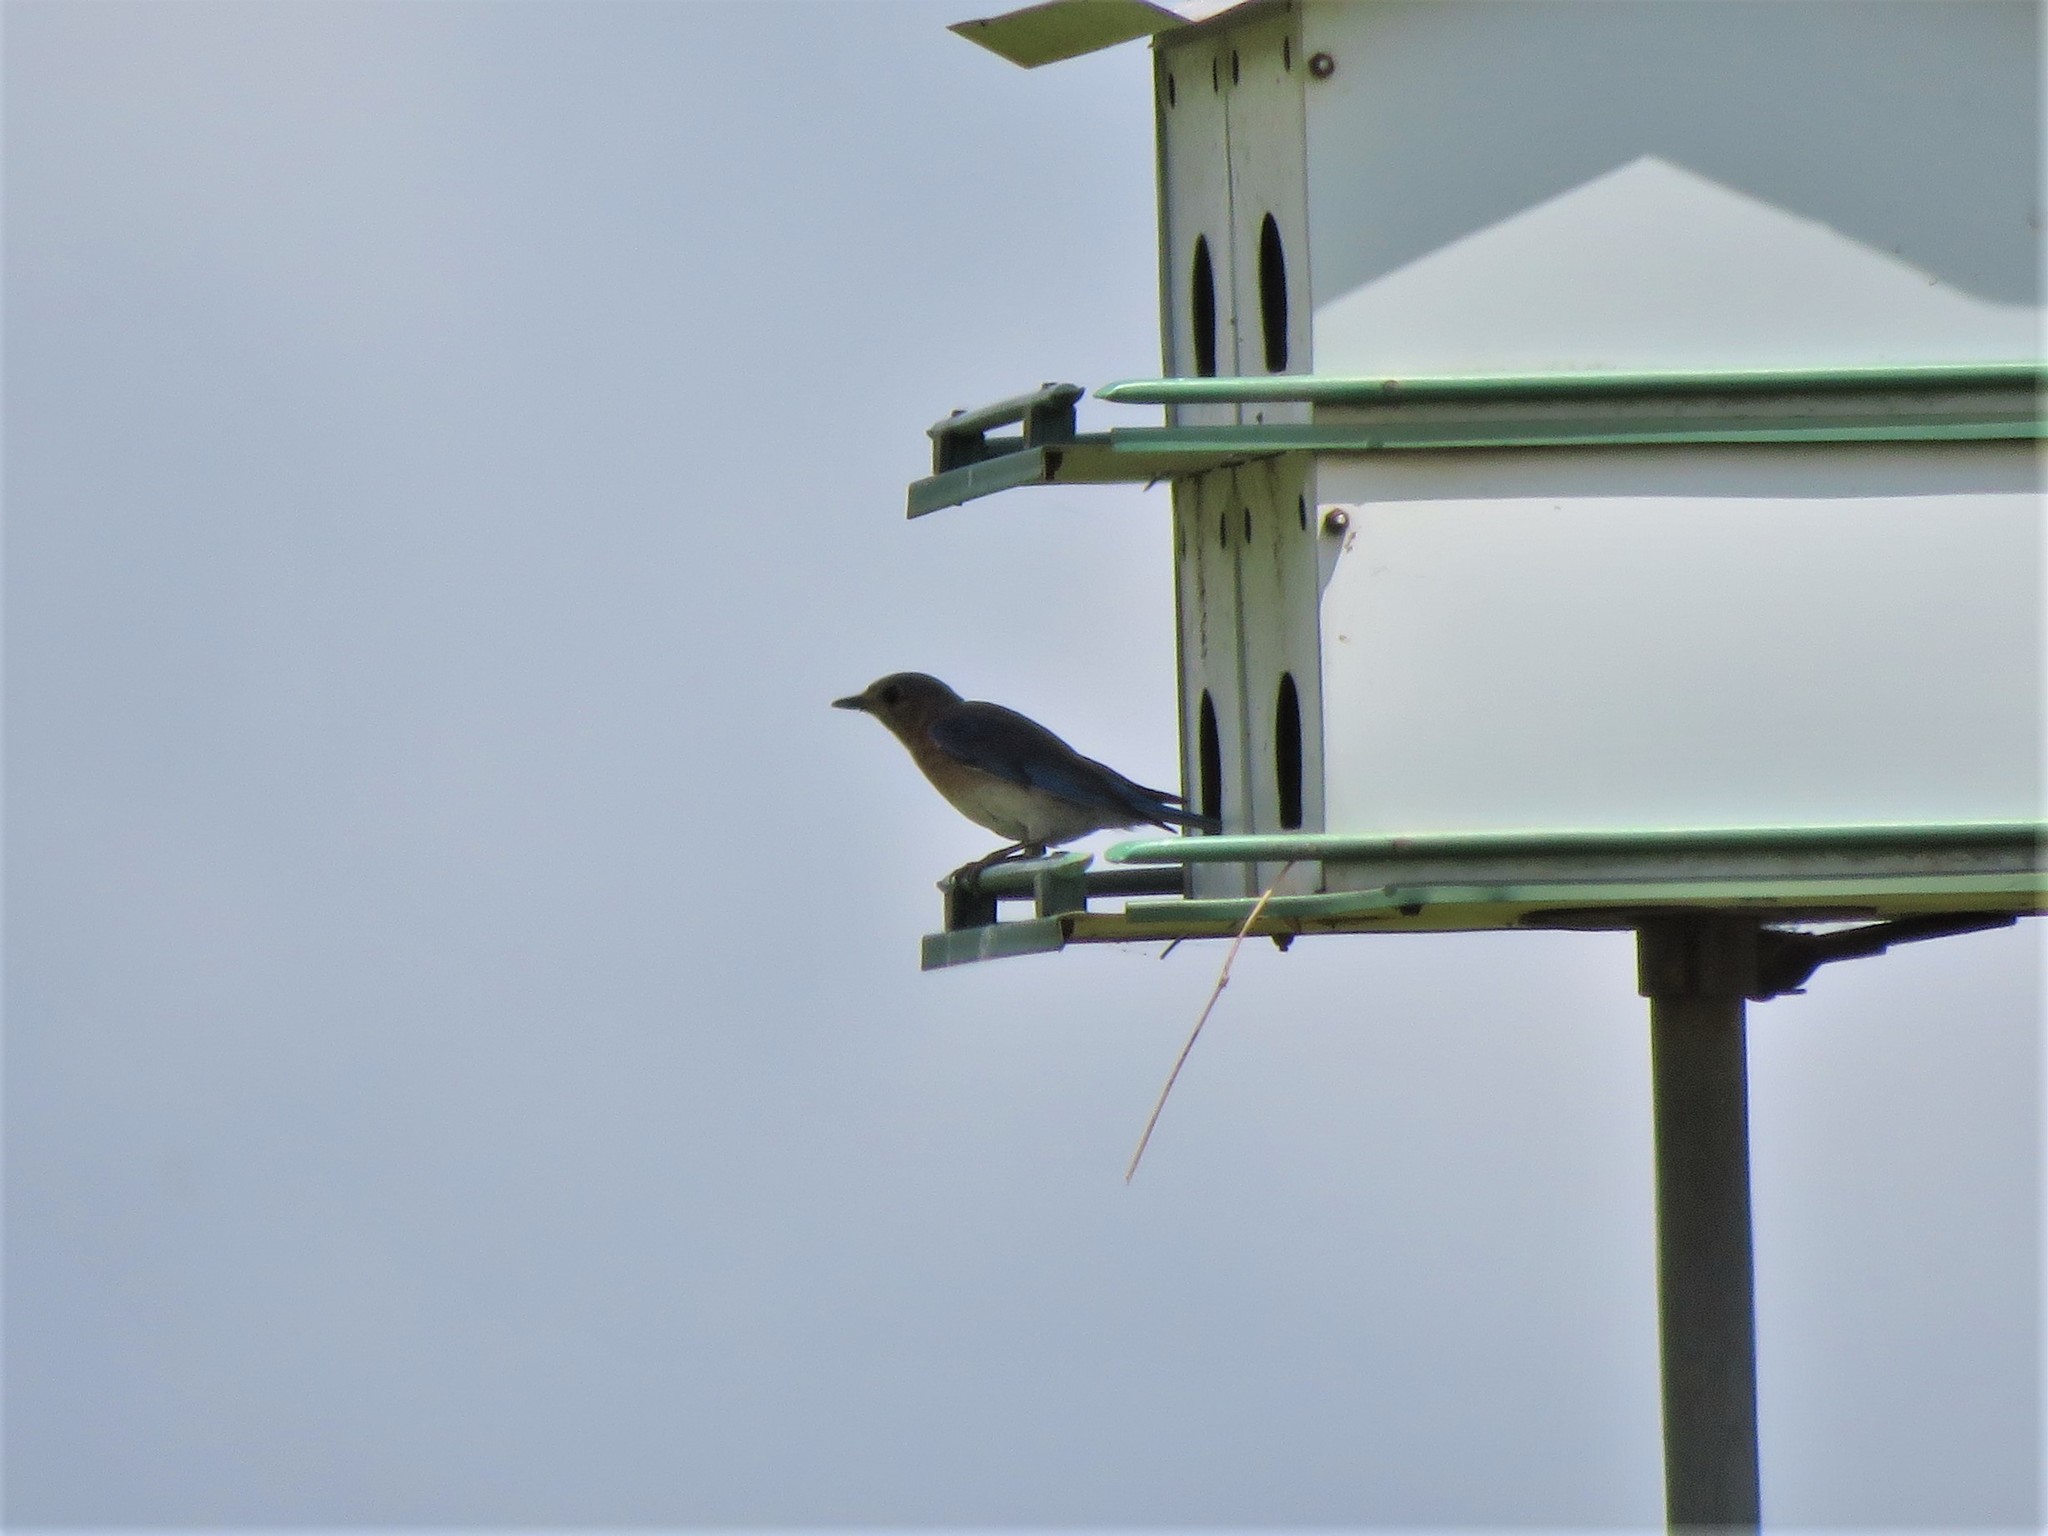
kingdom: Animalia
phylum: Chordata
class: Aves
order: Passeriformes
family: Turdidae
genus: Sialia
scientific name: Sialia sialis
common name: Eastern bluebird
